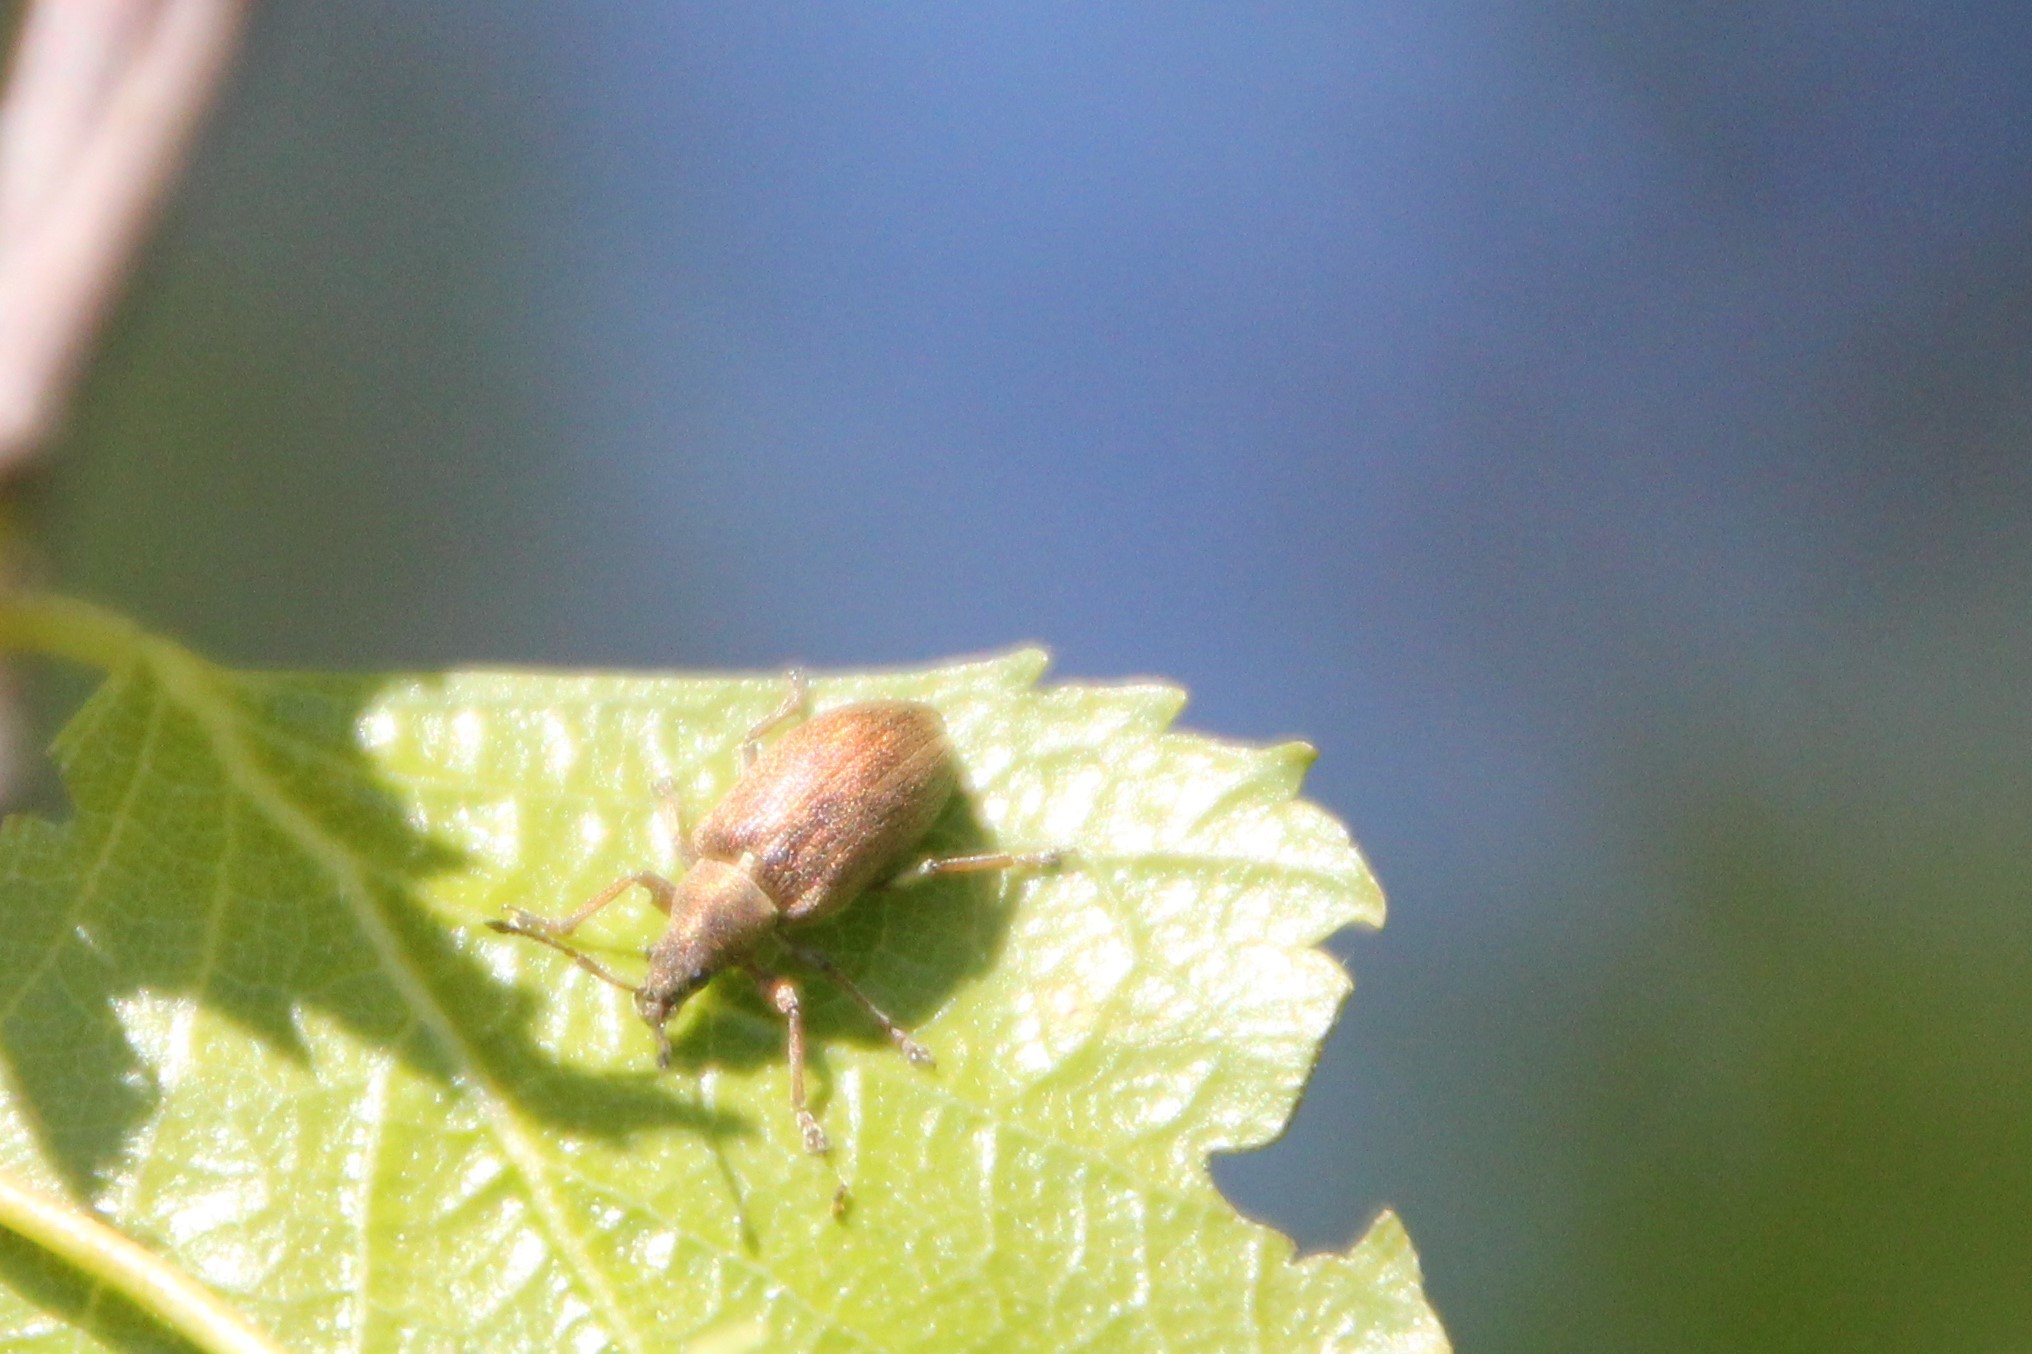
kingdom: Animalia
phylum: Arthropoda
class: Insecta
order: Coleoptera
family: Curculionidae
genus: Phyllobius
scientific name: Phyllobius pyri
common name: Common leaf weevil
